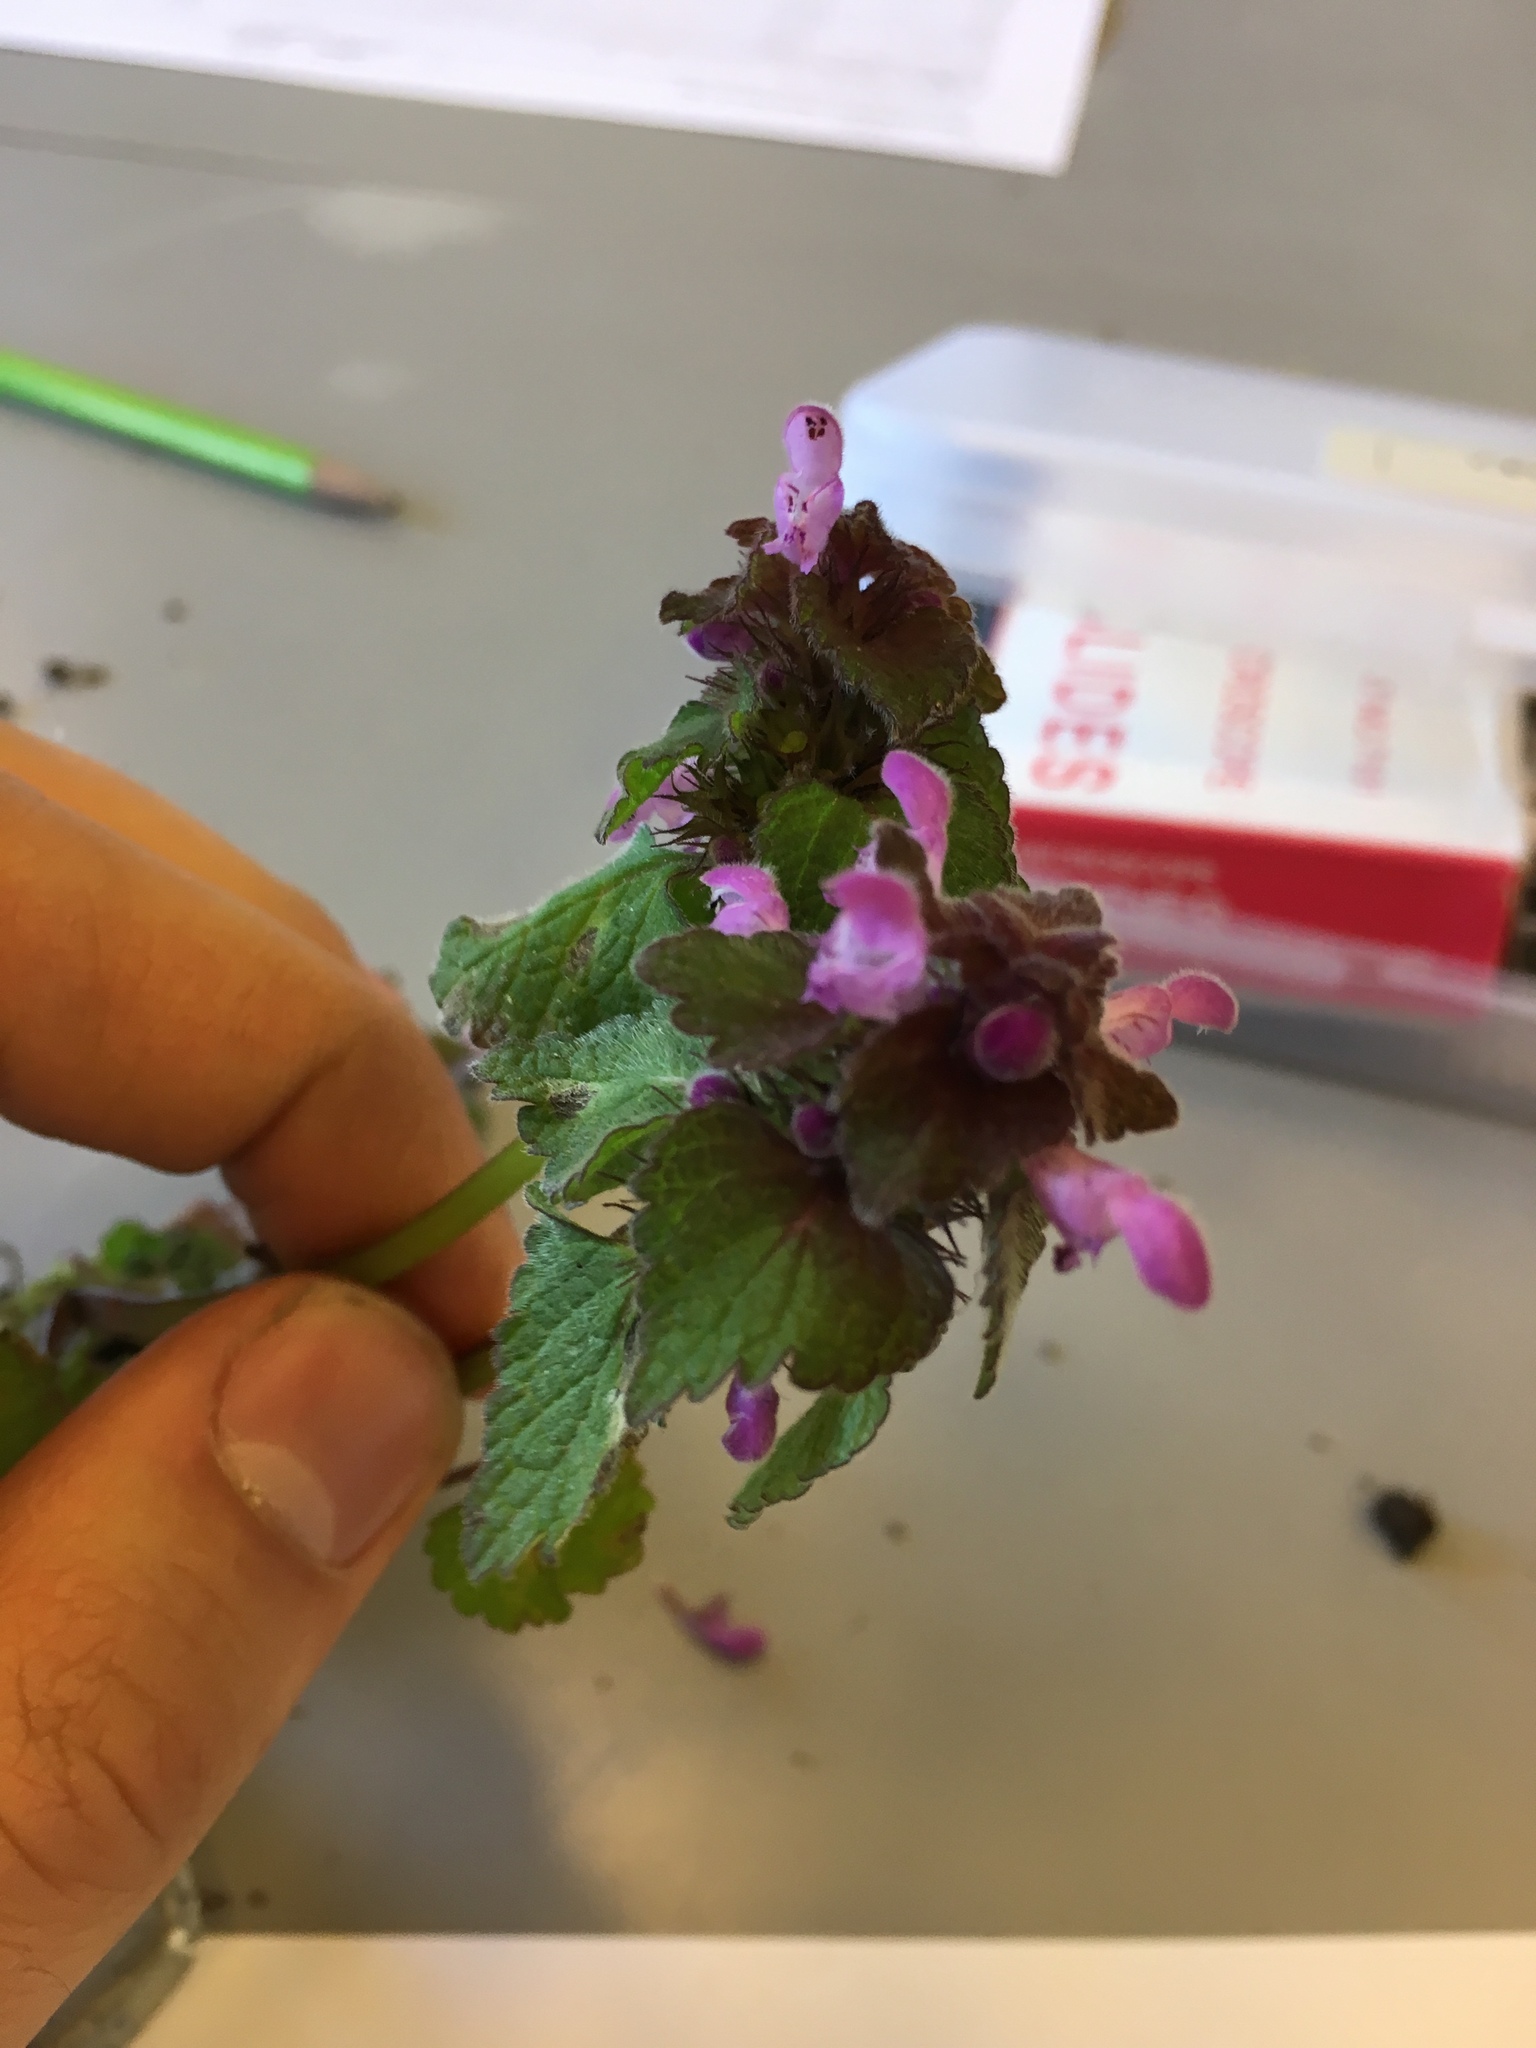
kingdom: Plantae
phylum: Tracheophyta
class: Magnoliopsida
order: Lamiales
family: Lamiaceae
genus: Lamium
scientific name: Lamium purpureum
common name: Red dead-nettle
